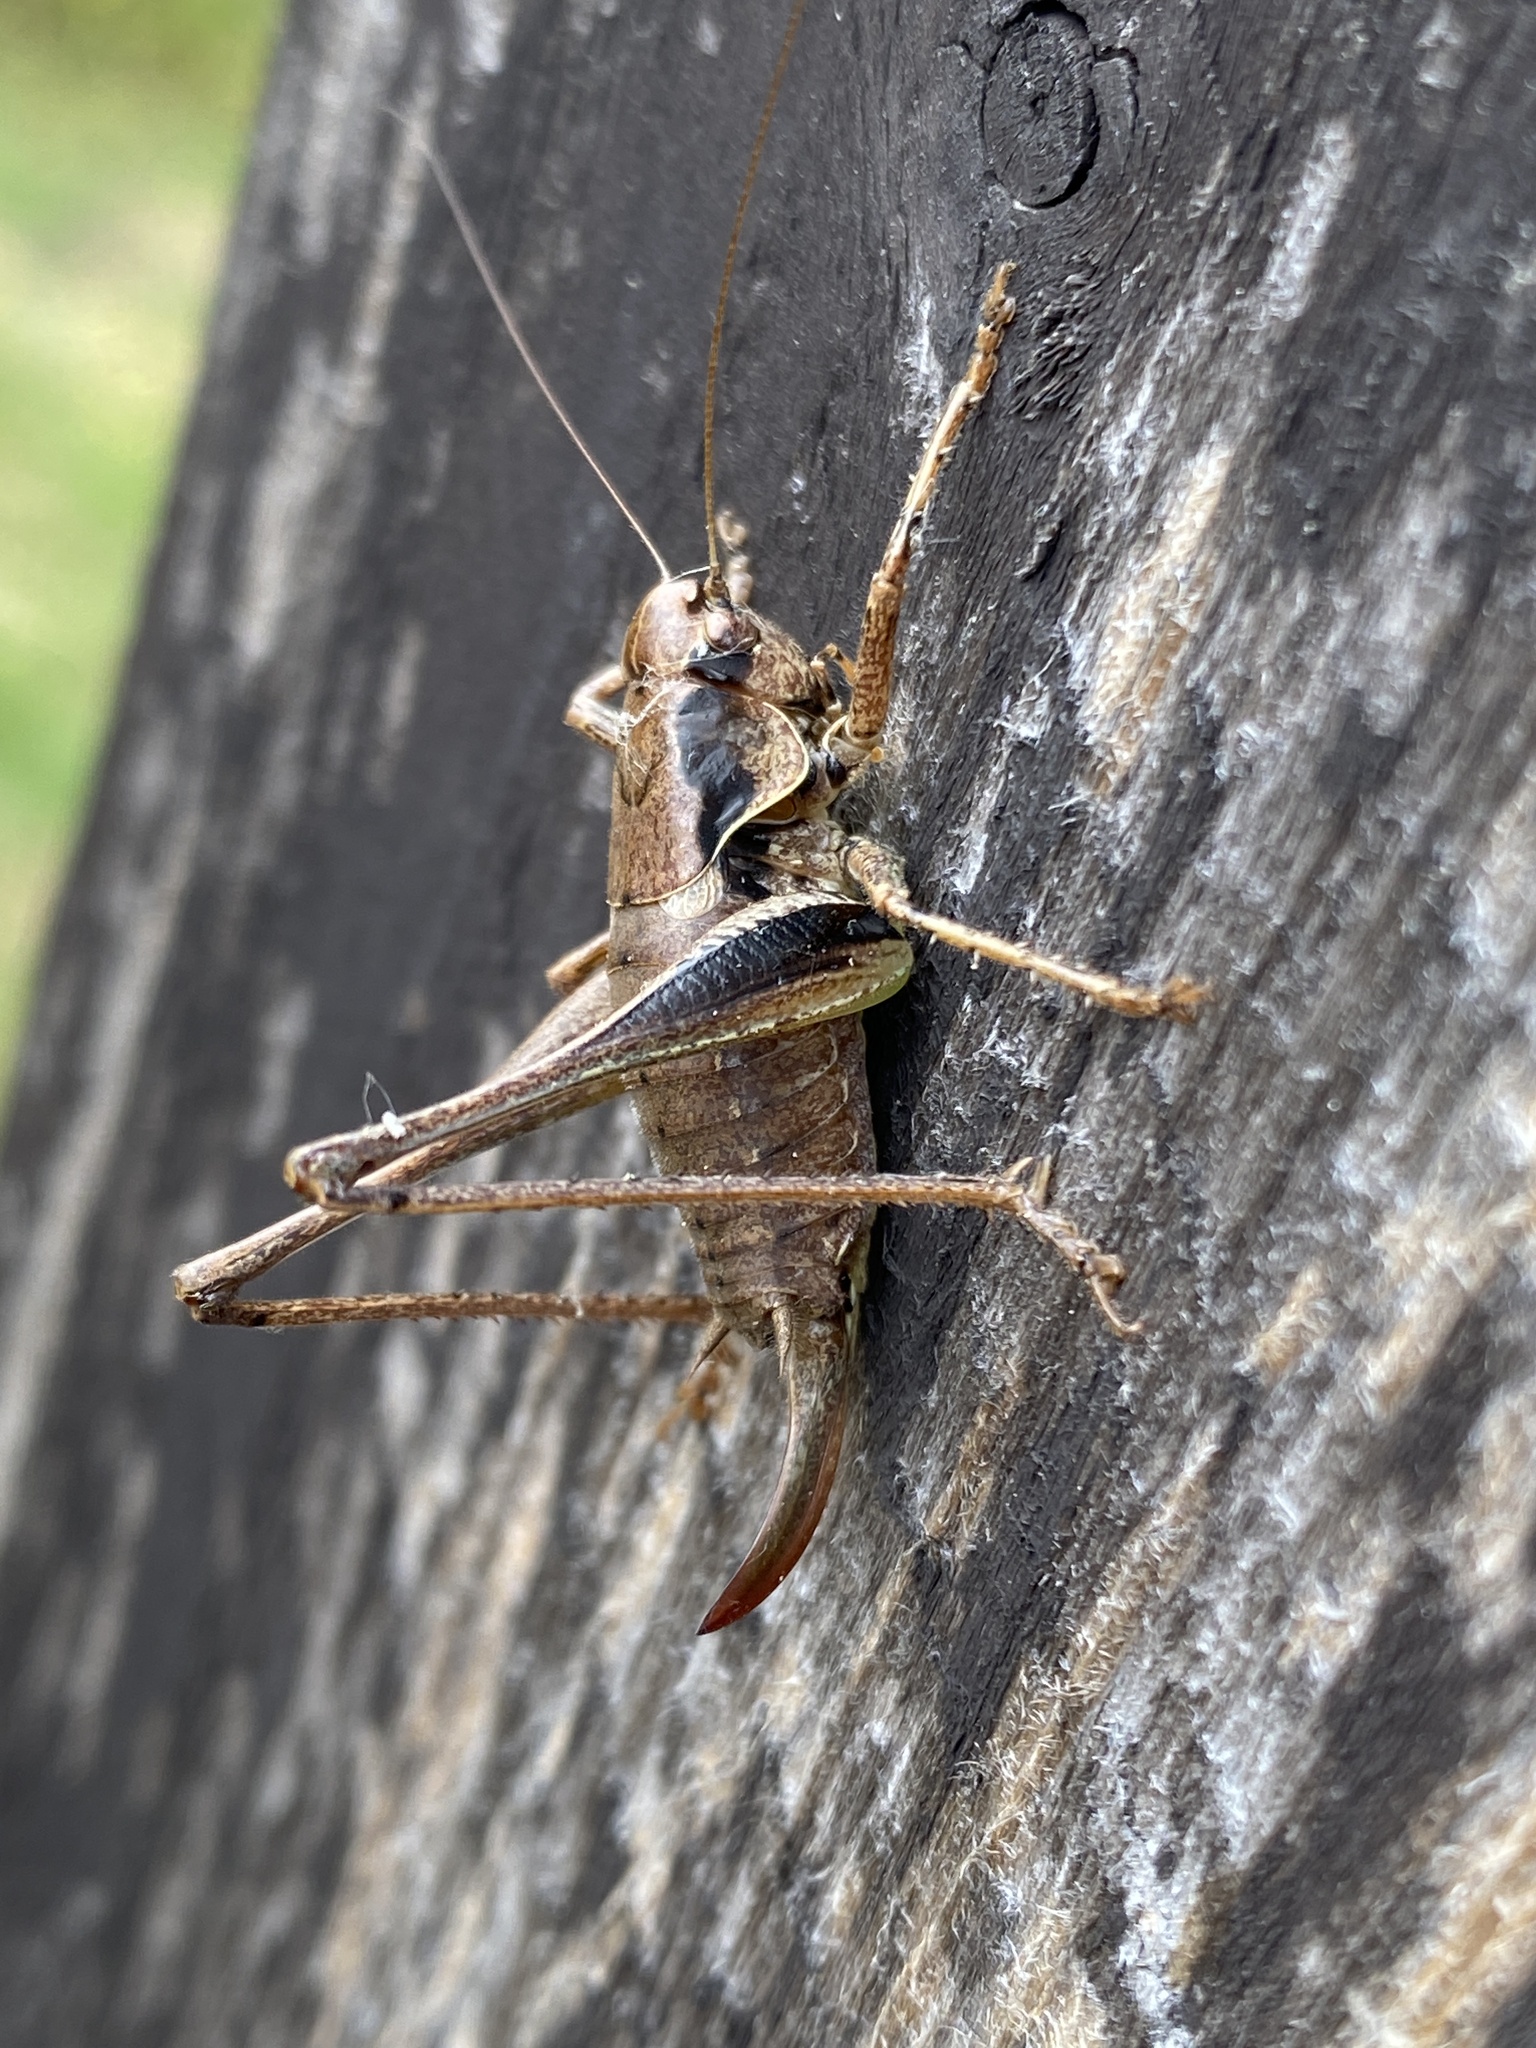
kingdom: Animalia
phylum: Arthropoda
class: Insecta
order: Orthoptera
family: Tettigoniidae
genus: Pholidoptera
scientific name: Pholidoptera griseoaptera
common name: Dark bush-cricket
